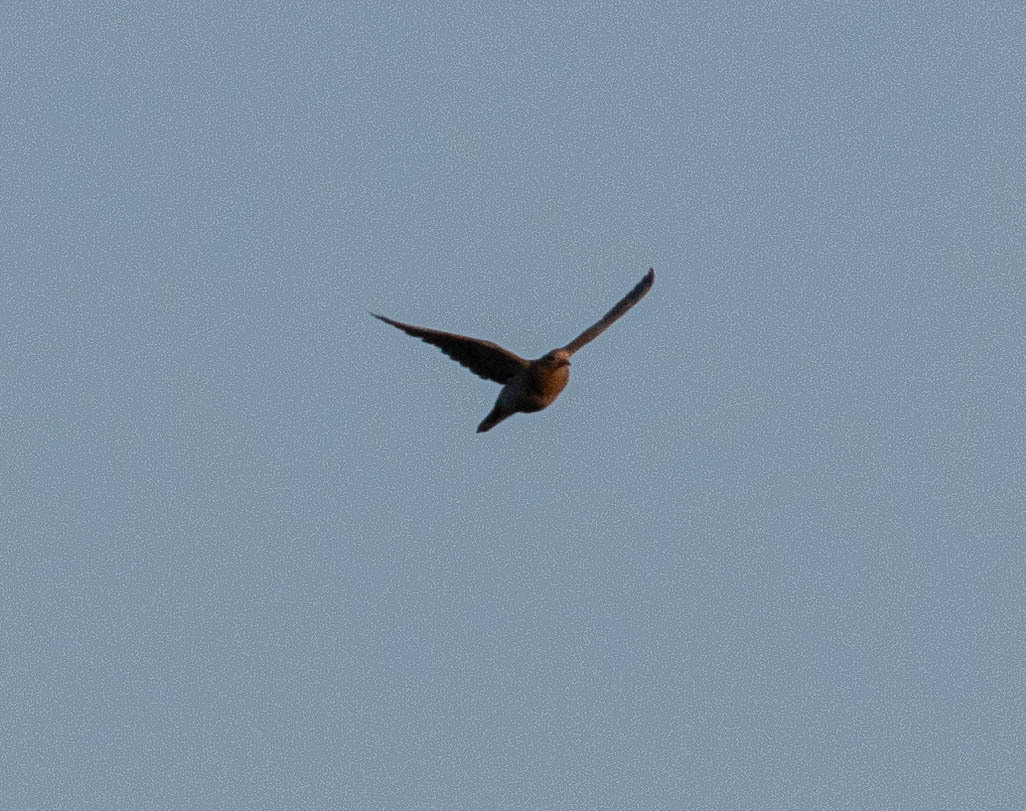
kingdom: Animalia
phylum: Chordata
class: Aves
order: Columbiformes
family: Columbidae
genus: Zenaida
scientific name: Zenaida macroura
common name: Mourning dove
